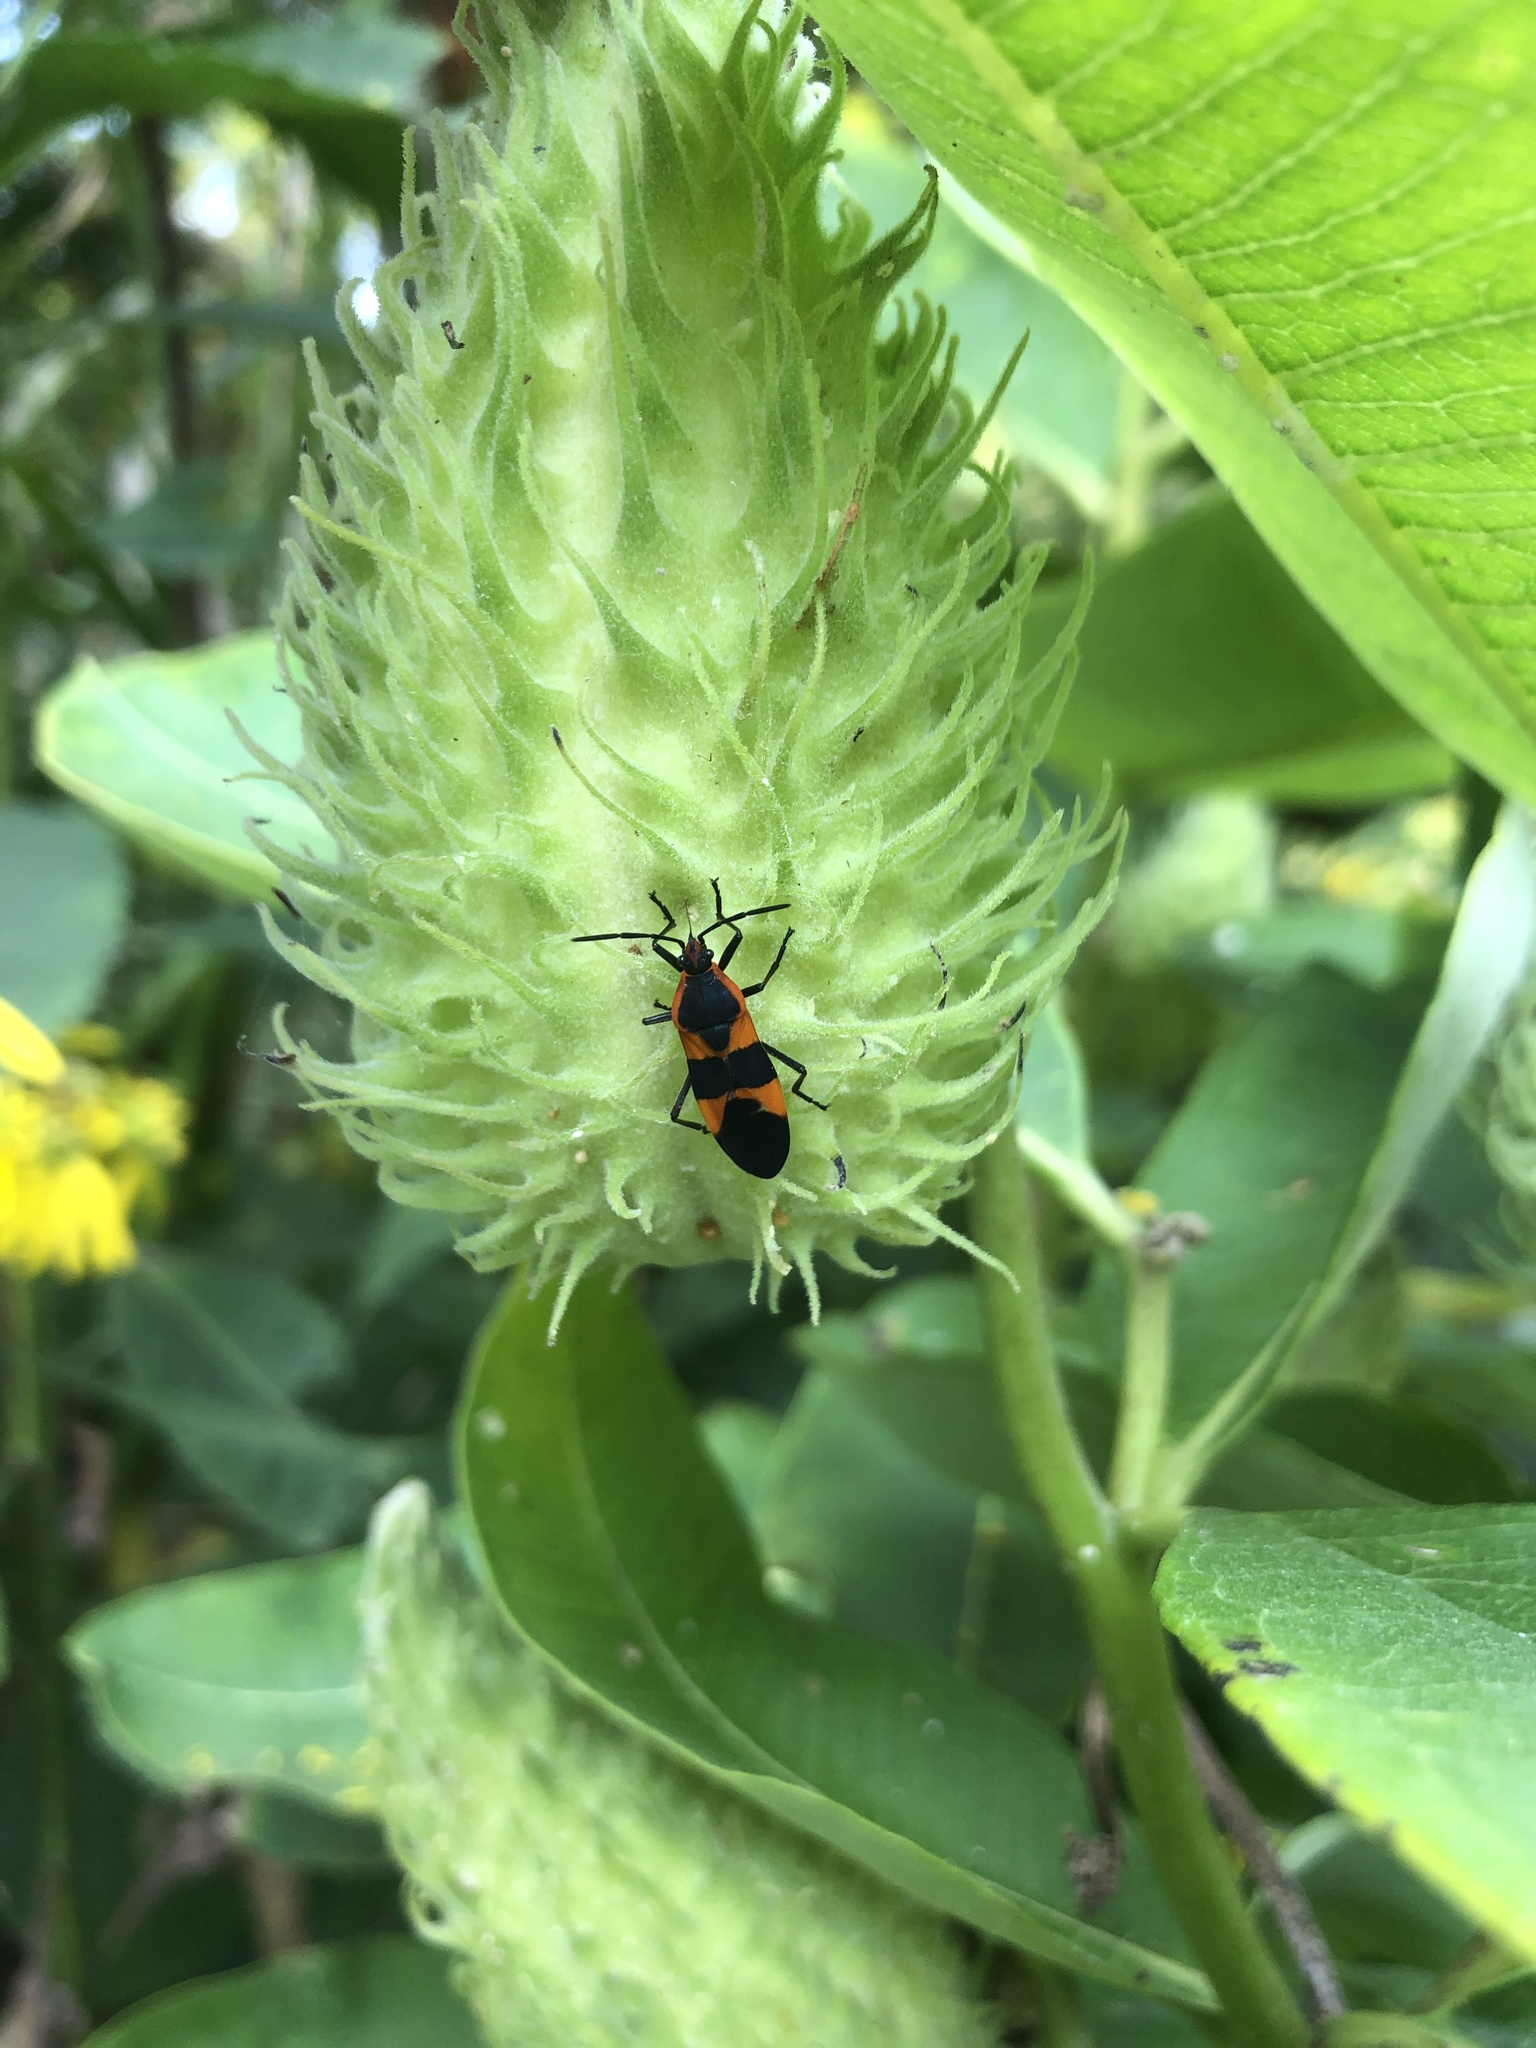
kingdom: Animalia
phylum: Arthropoda
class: Insecta
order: Hemiptera
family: Lygaeidae
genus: Oncopeltus
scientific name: Oncopeltus fasciatus
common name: Large milkweed bug
